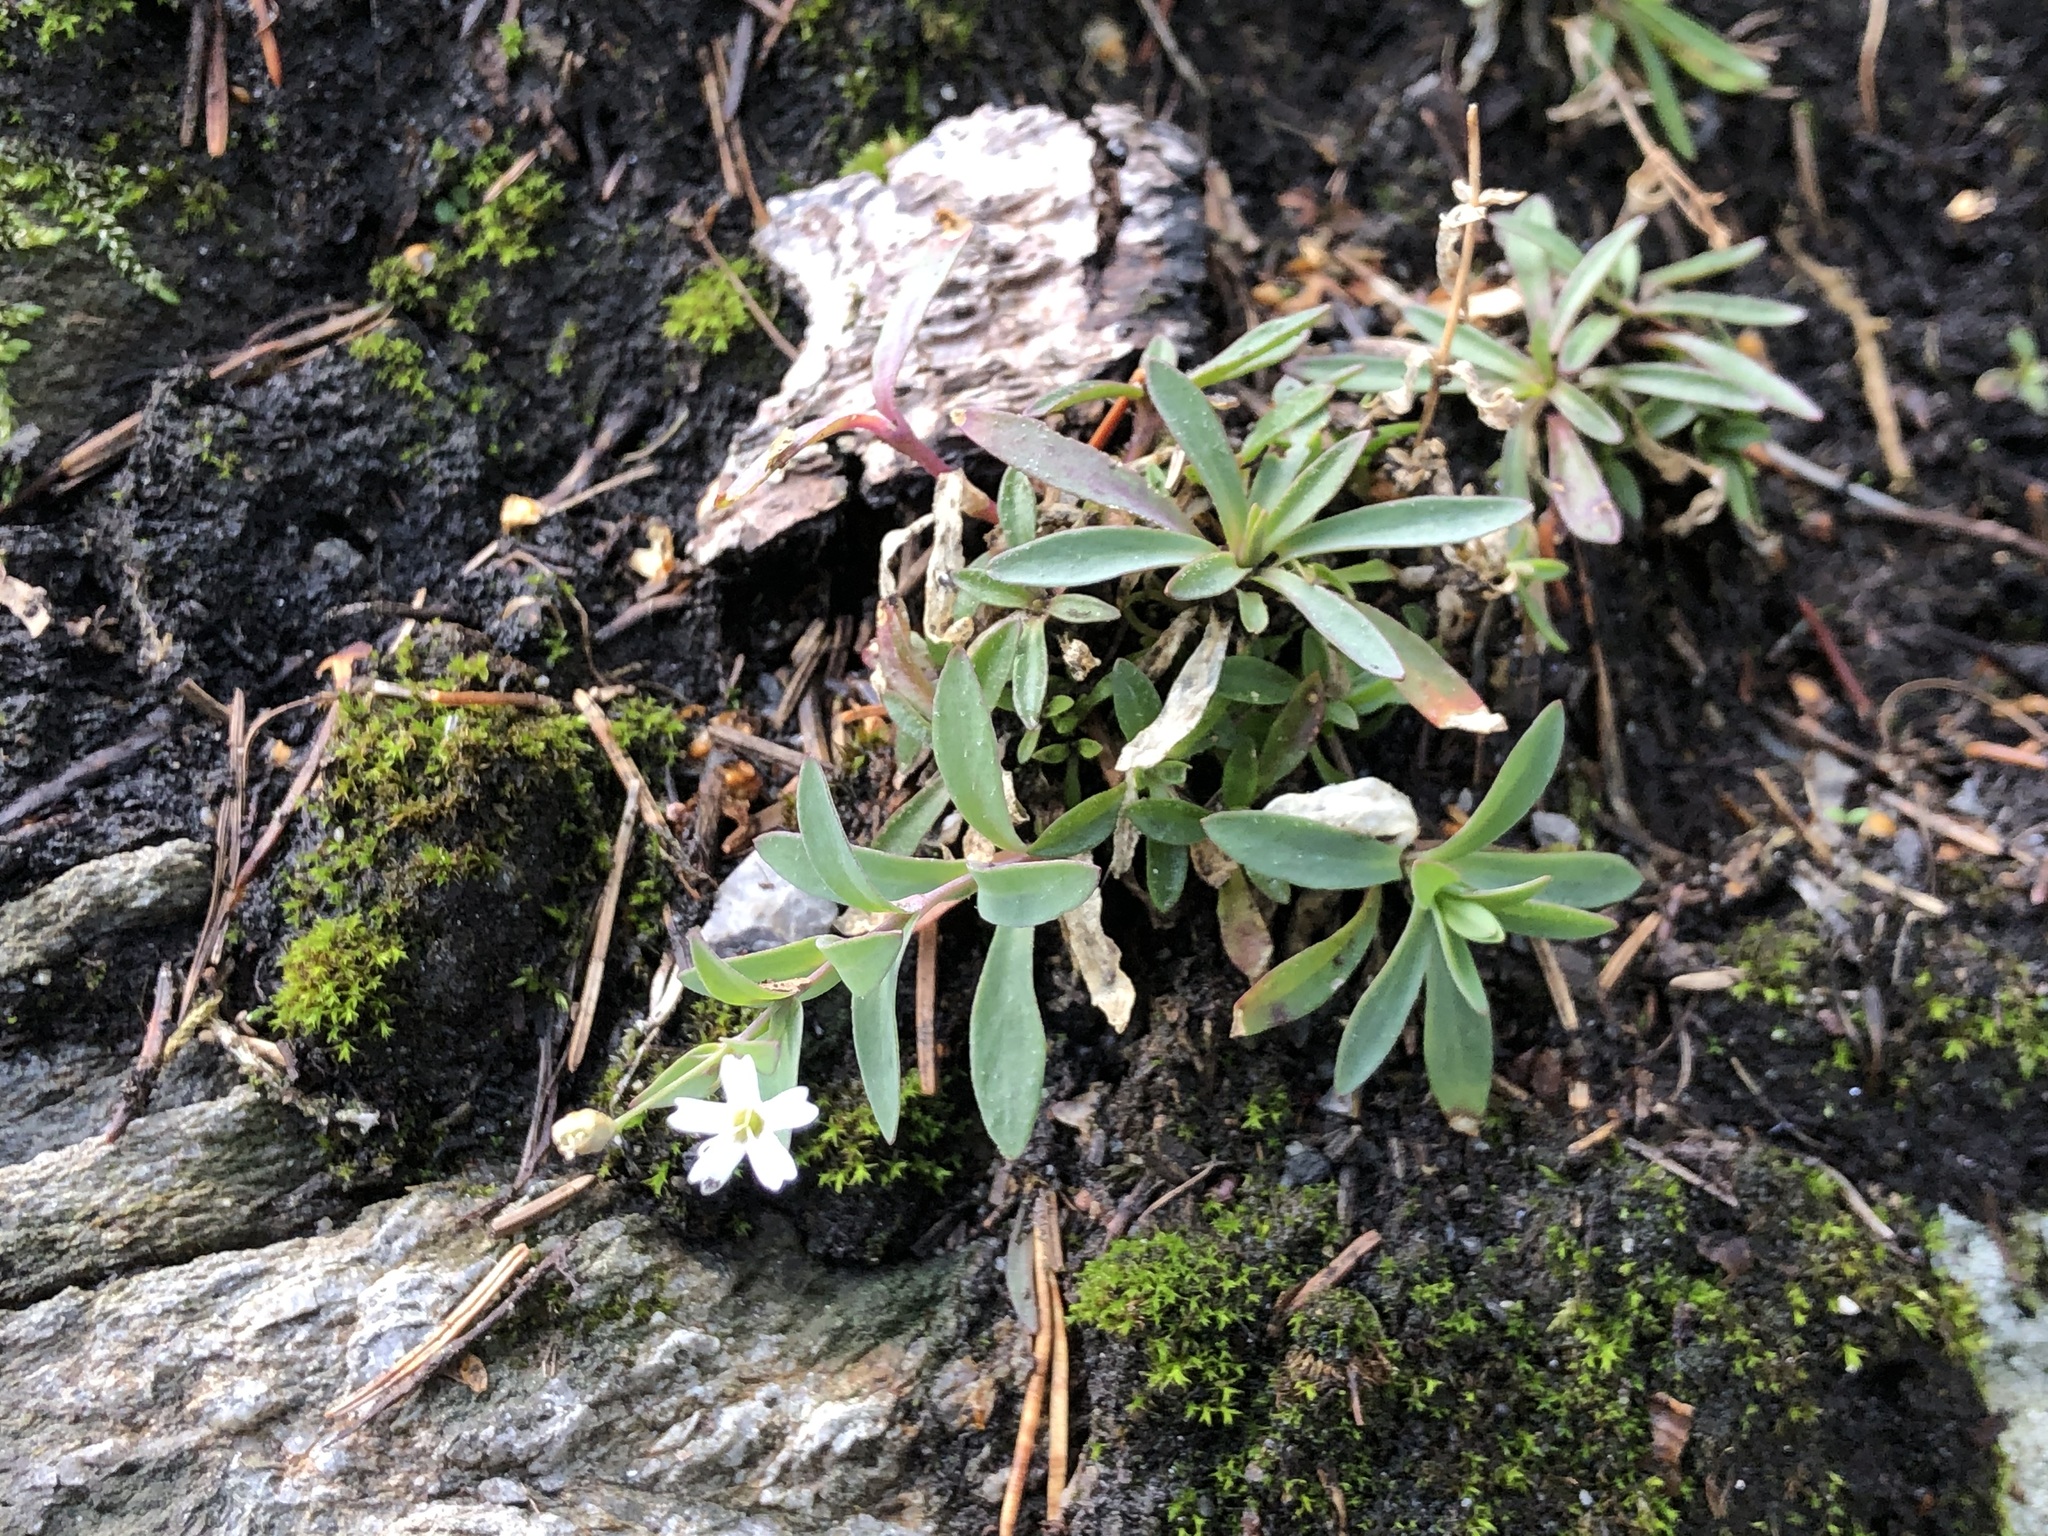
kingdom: Plantae
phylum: Tracheophyta
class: Magnoliopsida
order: Caryophyllales
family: Caryophyllaceae
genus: Atocion
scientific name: Atocion rupestre
